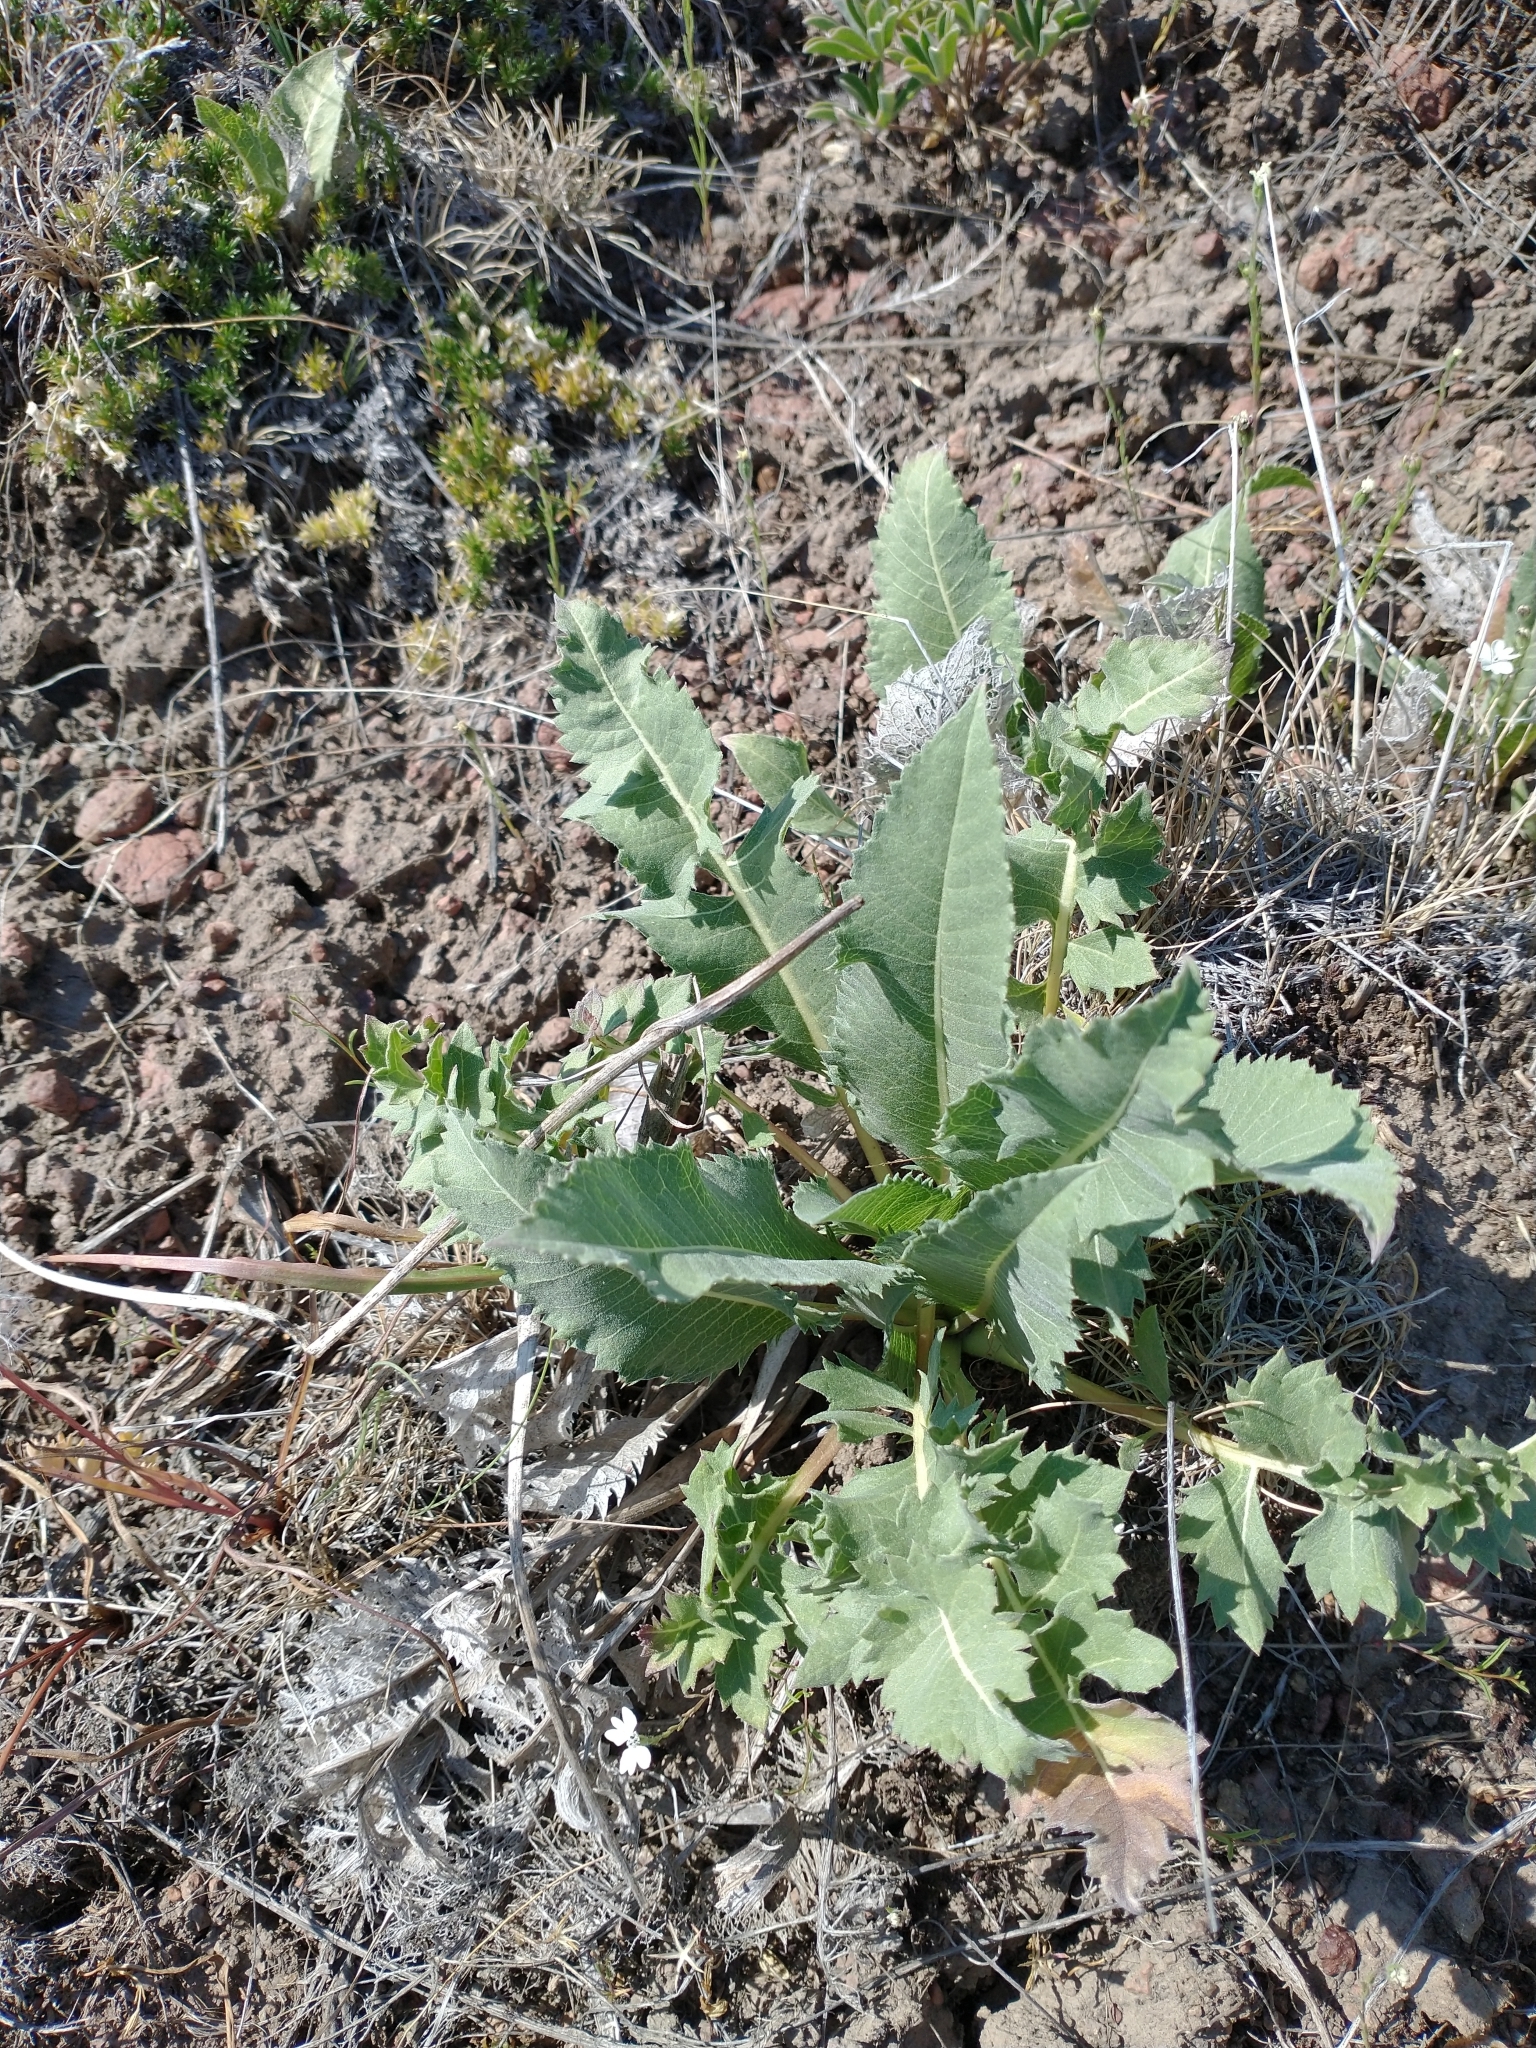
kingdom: Plantae
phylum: Tracheophyta
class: Magnoliopsida
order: Asterales
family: Asteraceae
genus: Balsamorhiza
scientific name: Balsamorhiza serrata
